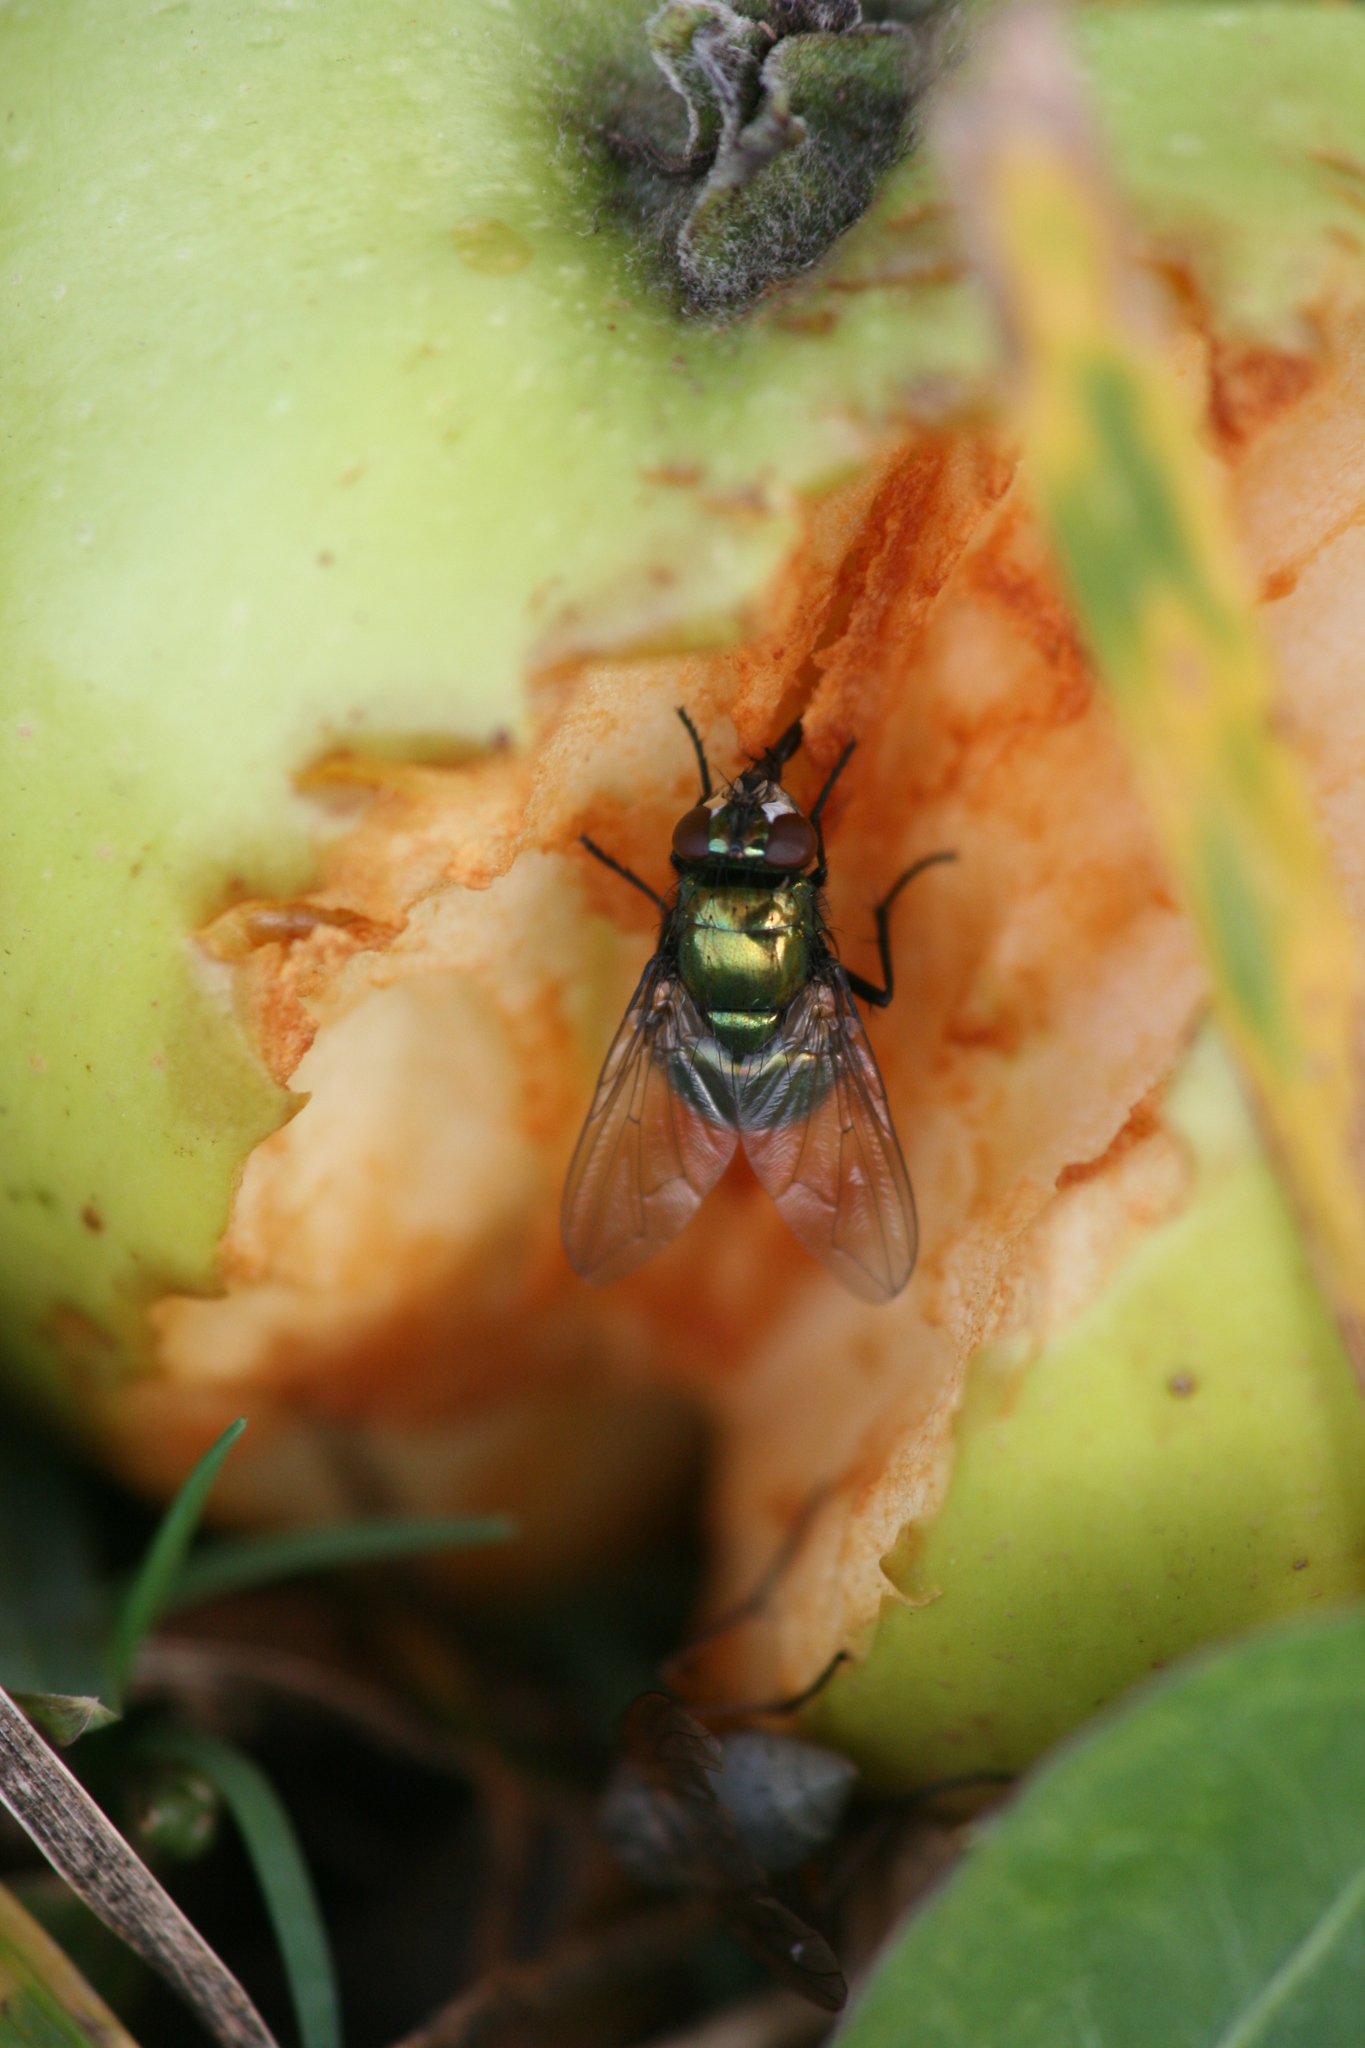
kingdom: Animalia
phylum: Arthropoda
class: Insecta
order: Diptera
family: Muscidae
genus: Neomyia
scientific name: Neomyia cornicina
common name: House fly
